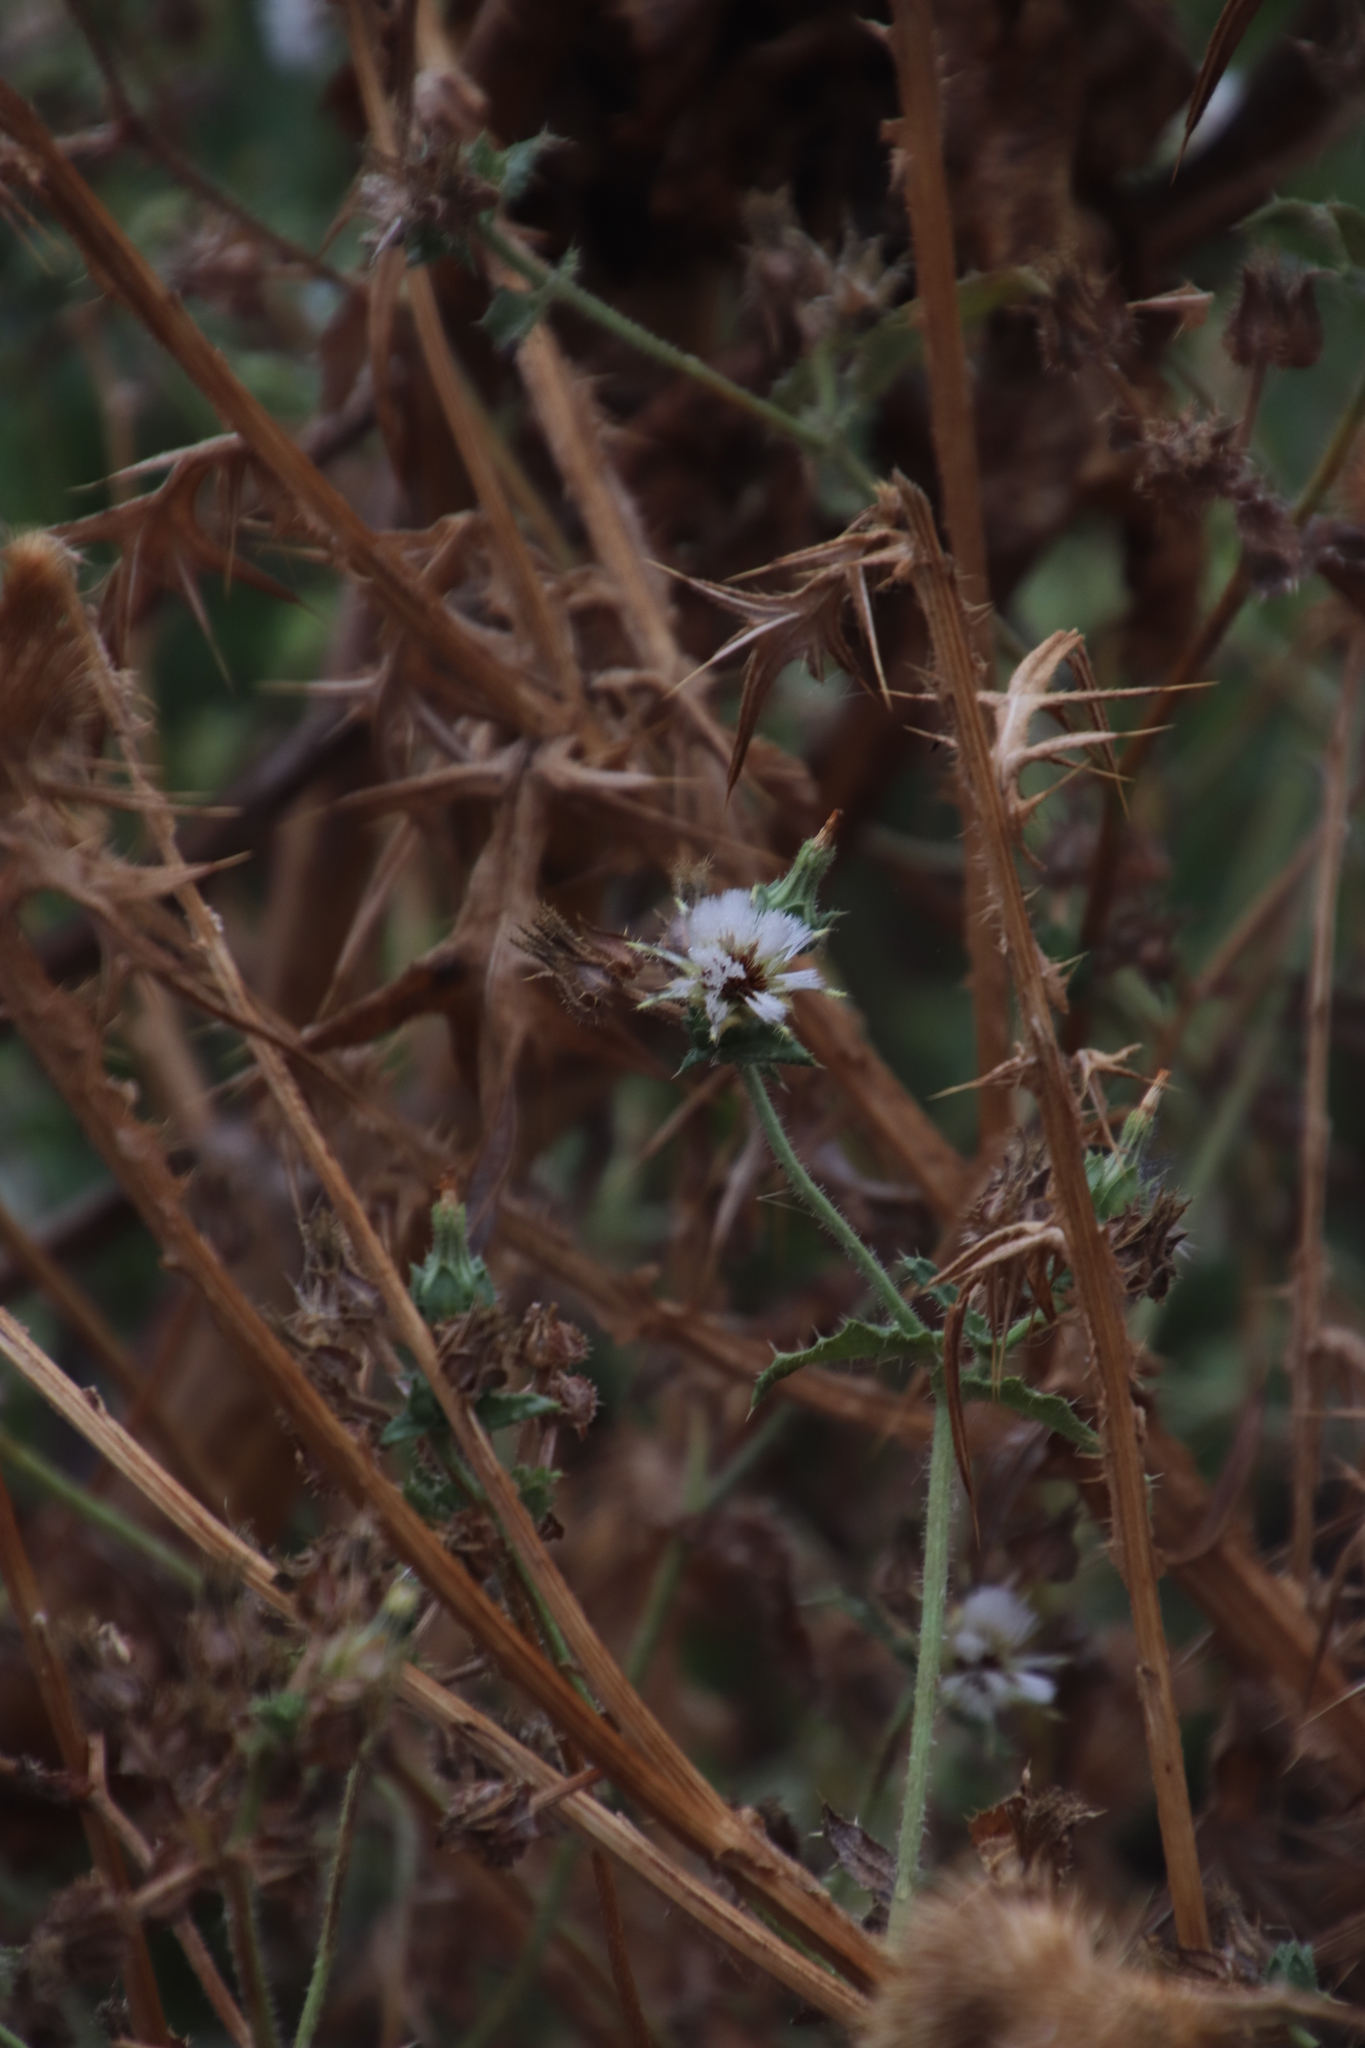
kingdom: Plantae
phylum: Tracheophyta
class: Magnoliopsida
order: Asterales
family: Asteraceae
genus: Helminthotheca
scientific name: Helminthotheca echioides
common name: Ox-tongue
